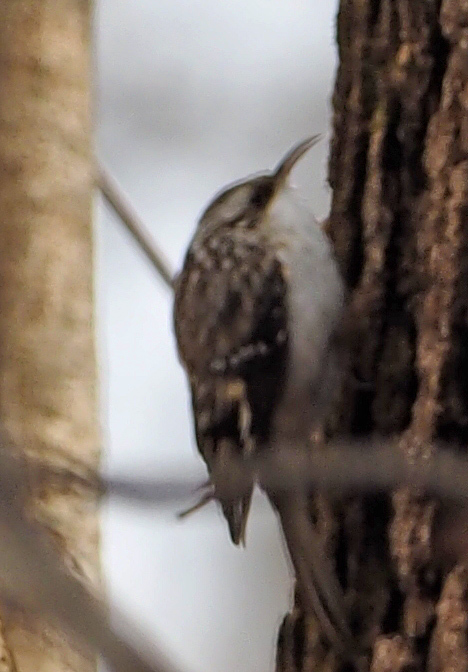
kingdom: Animalia
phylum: Chordata
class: Aves
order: Passeriformes
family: Certhiidae
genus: Certhia
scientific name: Certhia americana
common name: Brown creeper
